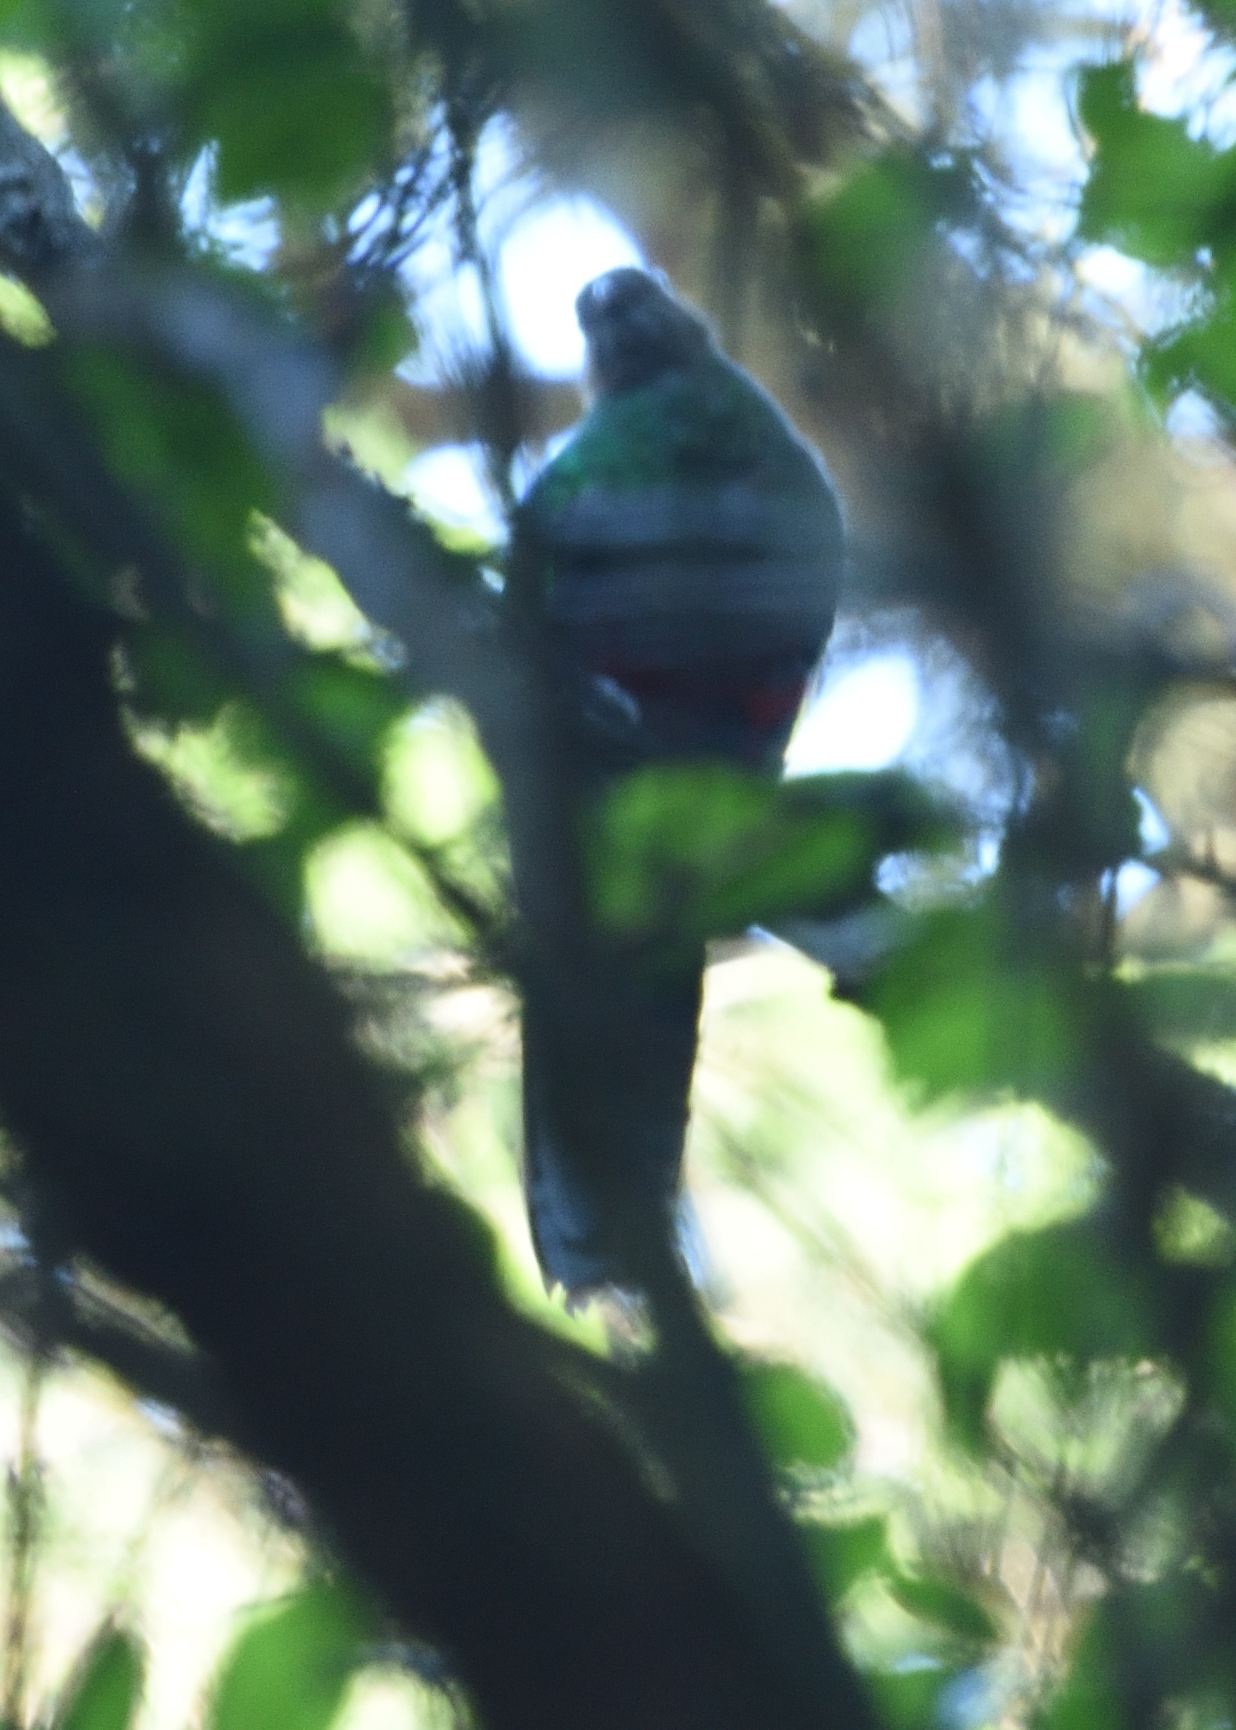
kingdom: Animalia
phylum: Chordata
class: Aves
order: Trogoniformes
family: Trogonidae
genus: Pharomachrus
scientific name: Pharomachrus fulgidus
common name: White-tipped quetzal
